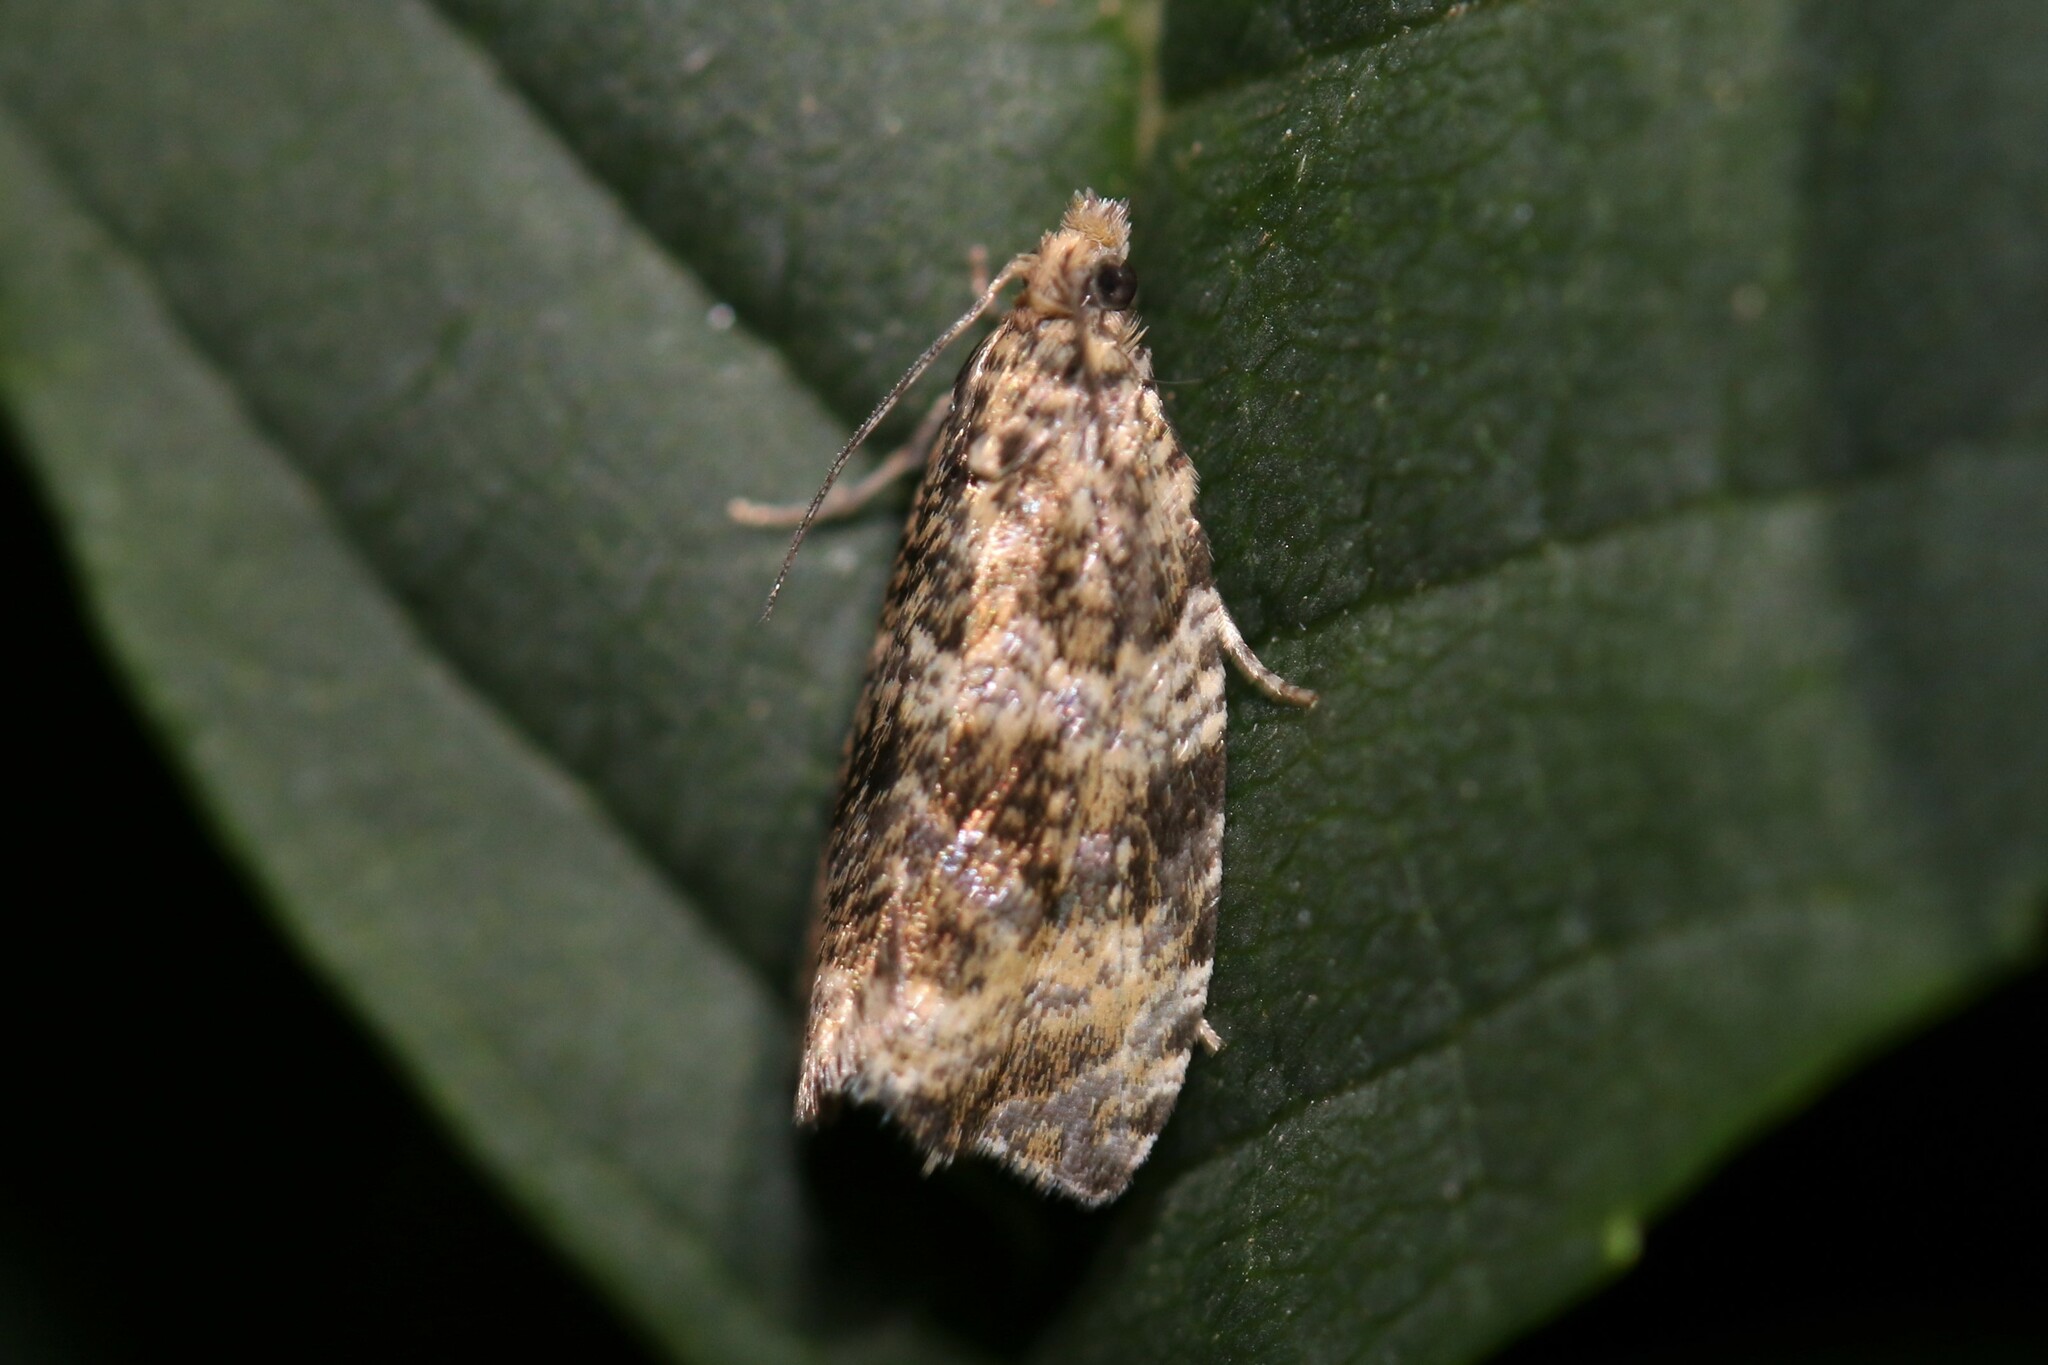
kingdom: Animalia
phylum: Arthropoda
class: Insecta
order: Lepidoptera
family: Tortricidae
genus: Syricoris
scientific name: Syricoris lacunana
